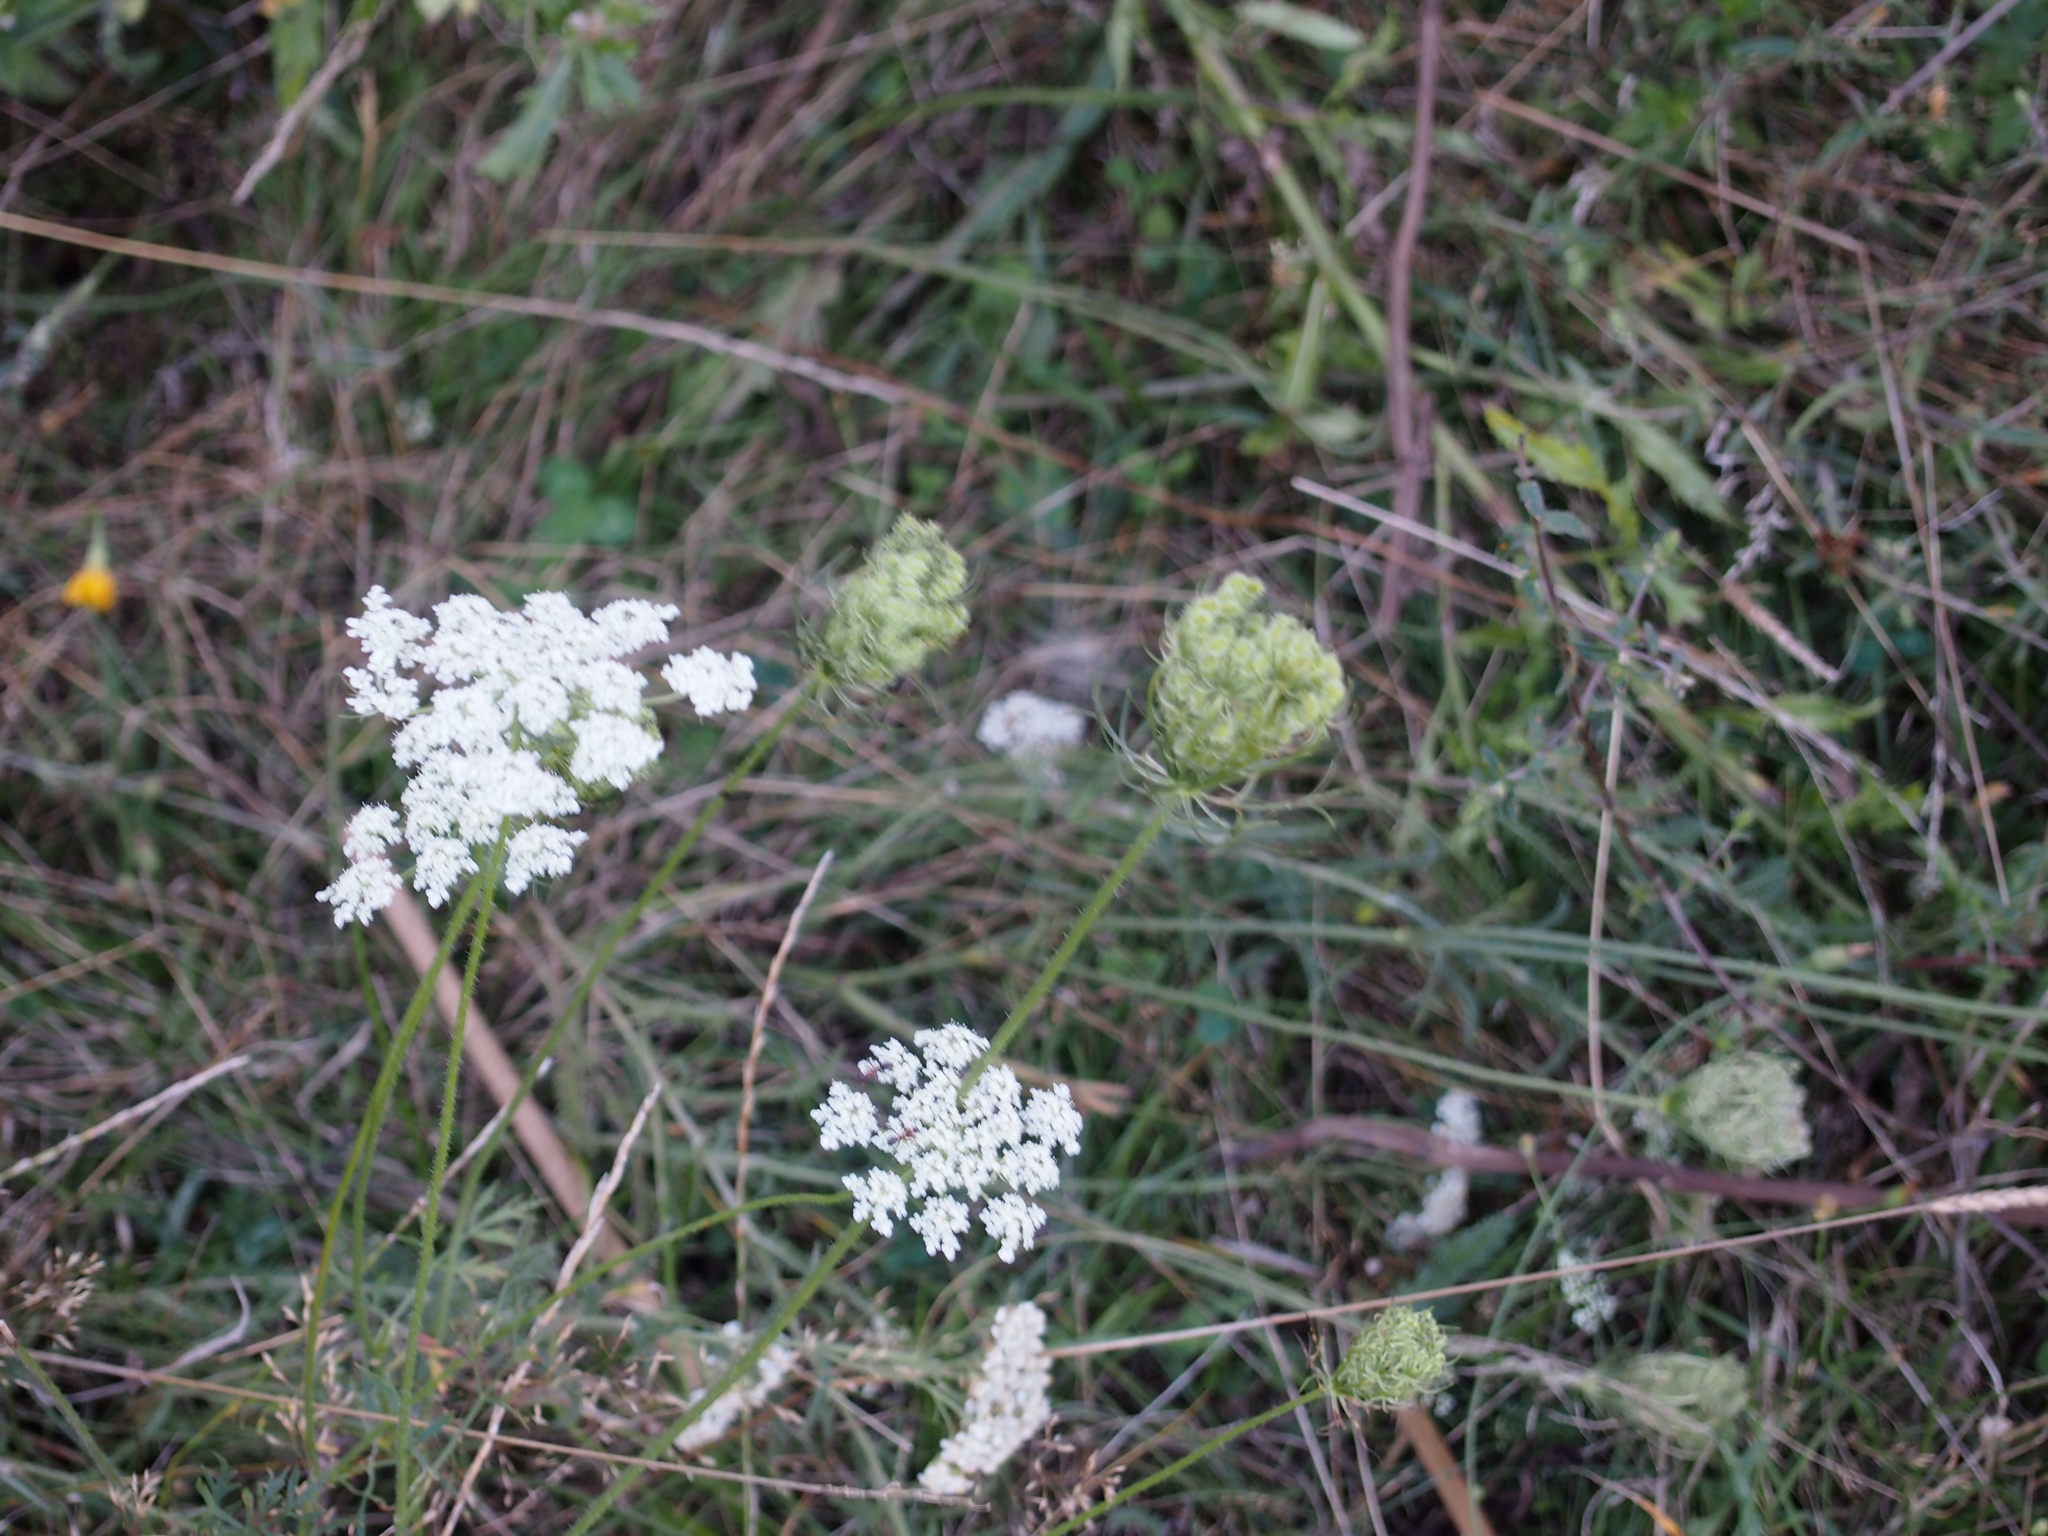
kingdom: Plantae
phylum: Tracheophyta
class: Magnoliopsida
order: Apiales
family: Apiaceae
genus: Daucus
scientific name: Daucus carota
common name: Wild carrot
